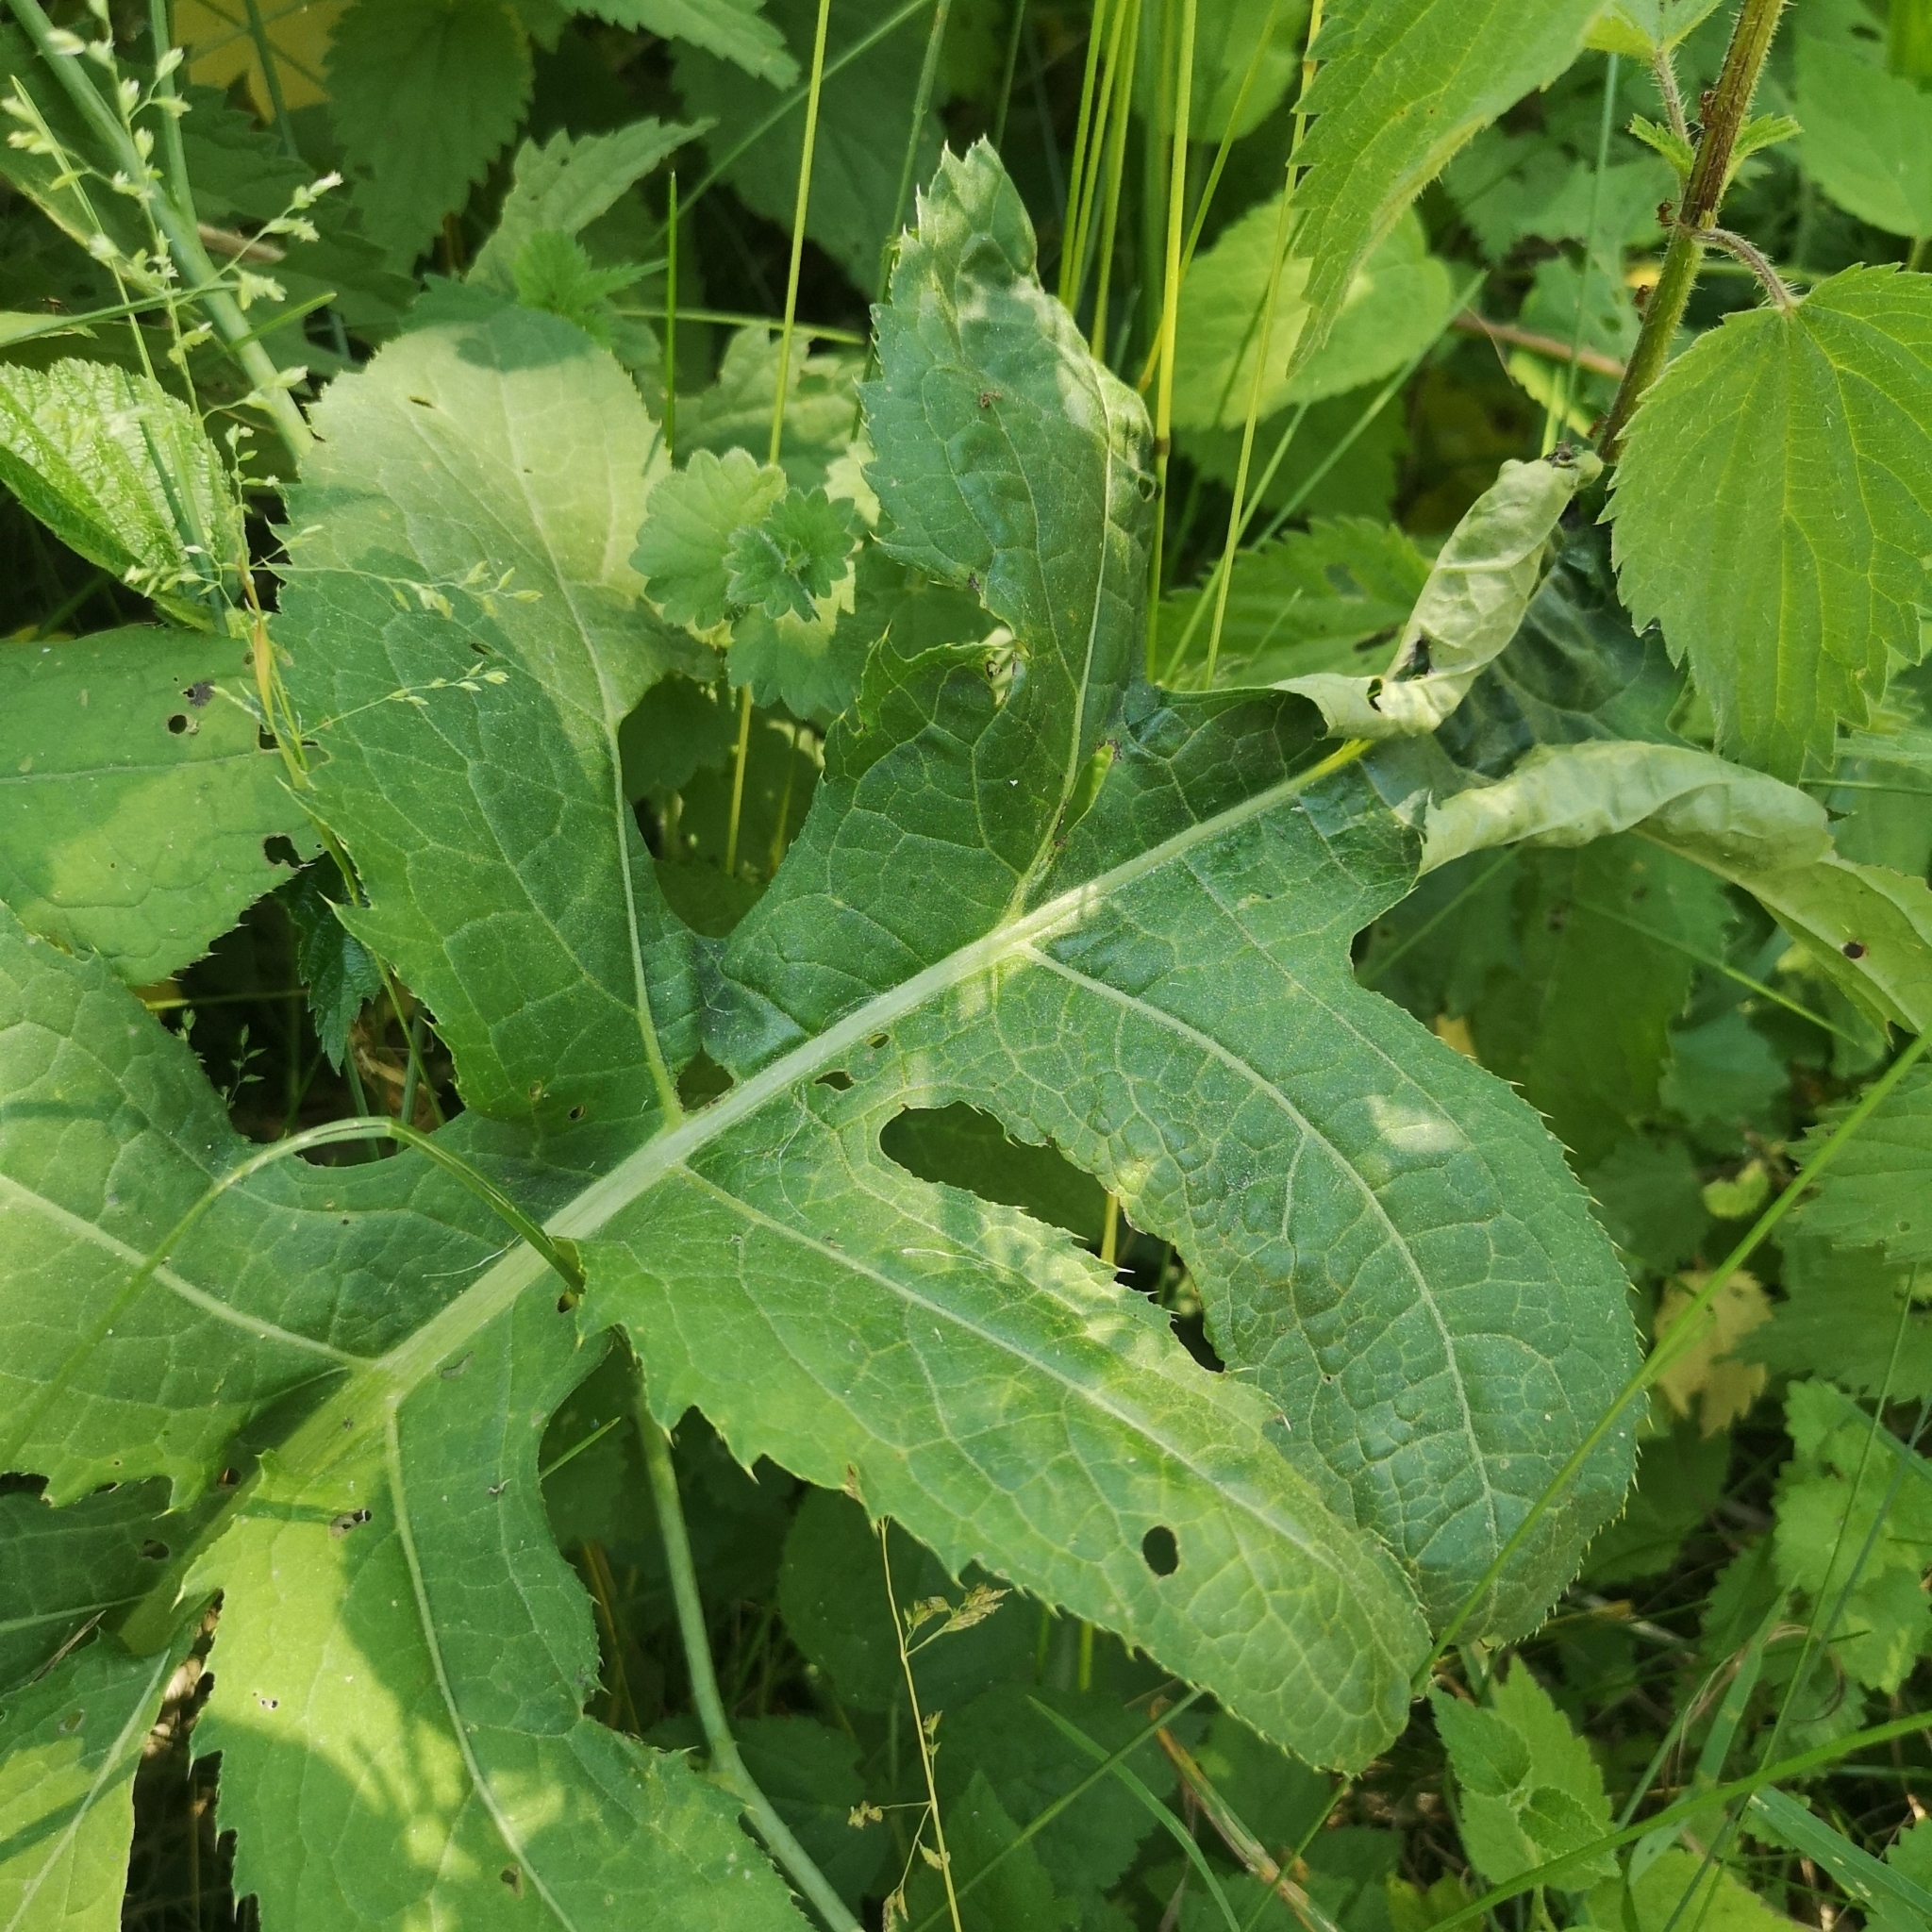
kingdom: Plantae
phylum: Tracheophyta
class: Magnoliopsida
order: Asterales
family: Asteraceae
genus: Cirsium
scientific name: Cirsium oleraceum
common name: Cabbage thistle
